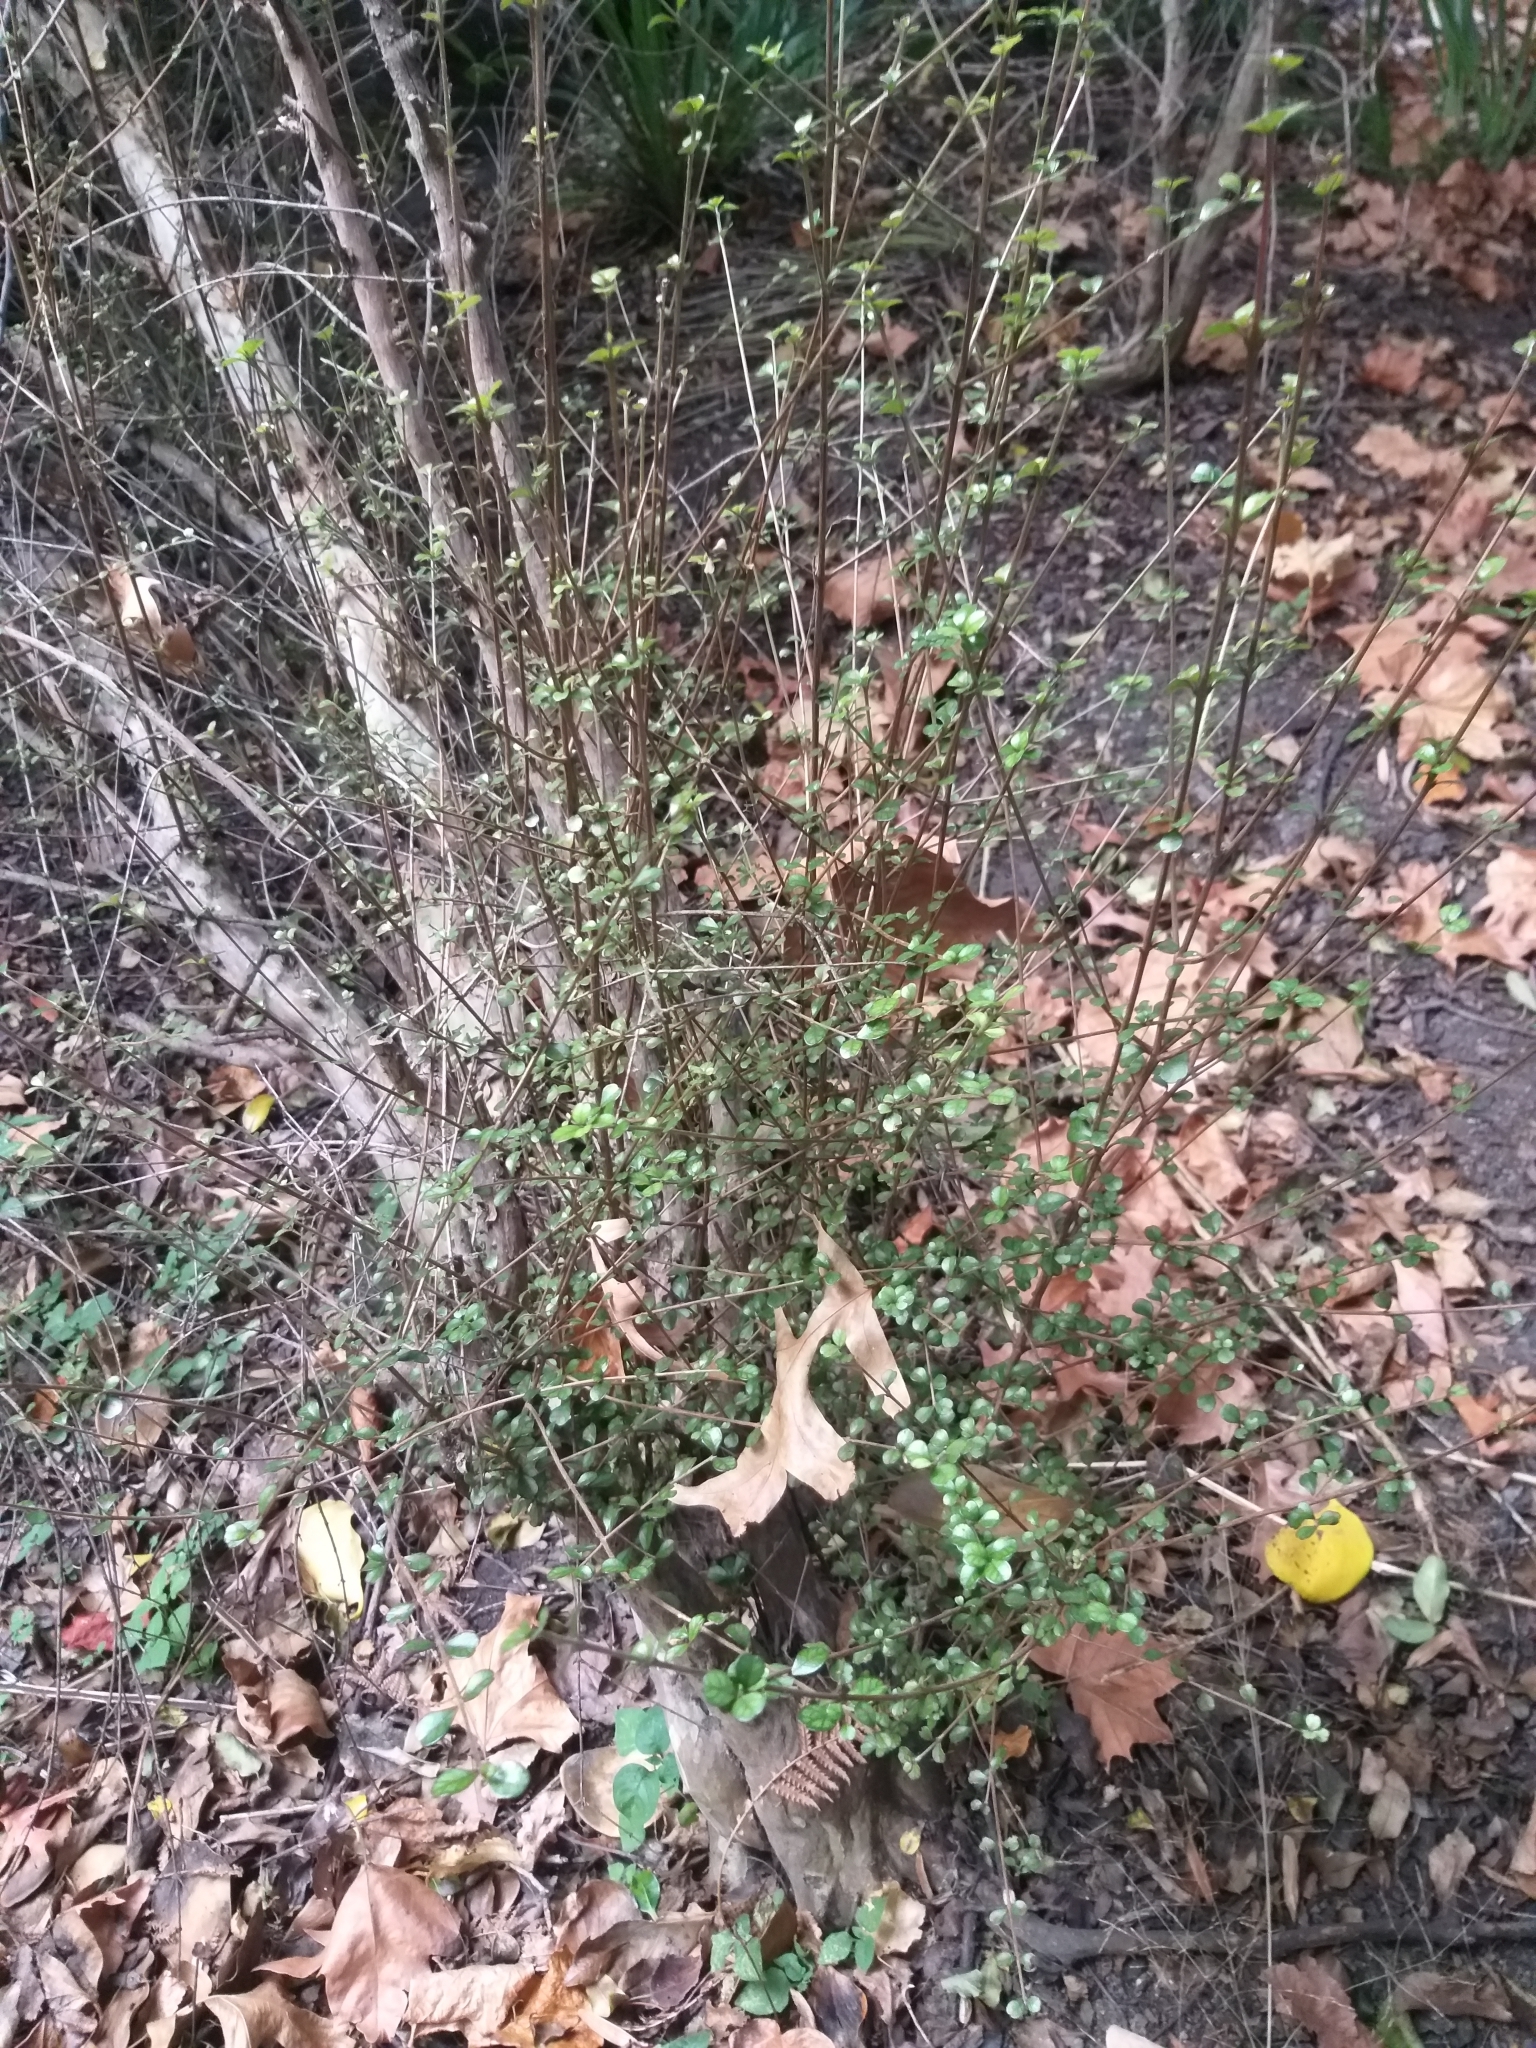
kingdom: Plantae
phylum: Tracheophyta
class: Magnoliopsida
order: Myrtales
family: Myrtaceae
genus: Lophomyrtus
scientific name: Lophomyrtus obcordata
